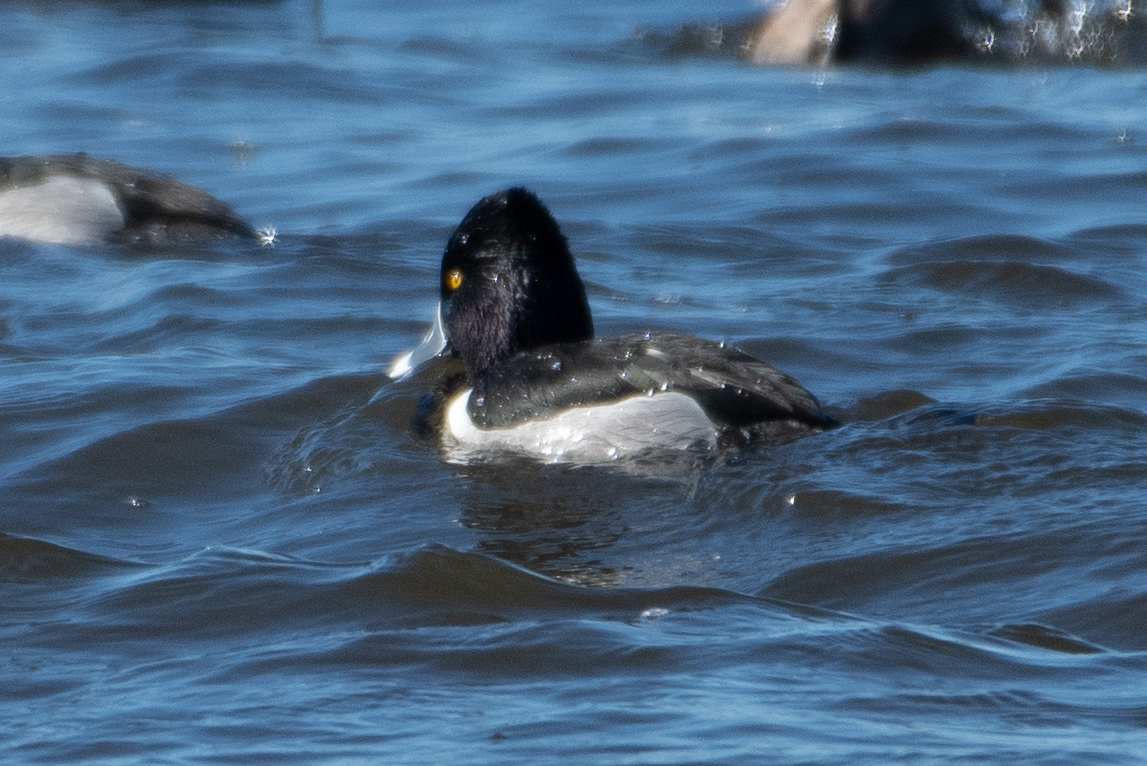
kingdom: Animalia
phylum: Chordata
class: Aves
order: Anseriformes
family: Anatidae
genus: Aythya
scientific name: Aythya collaris
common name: Ring-necked duck
